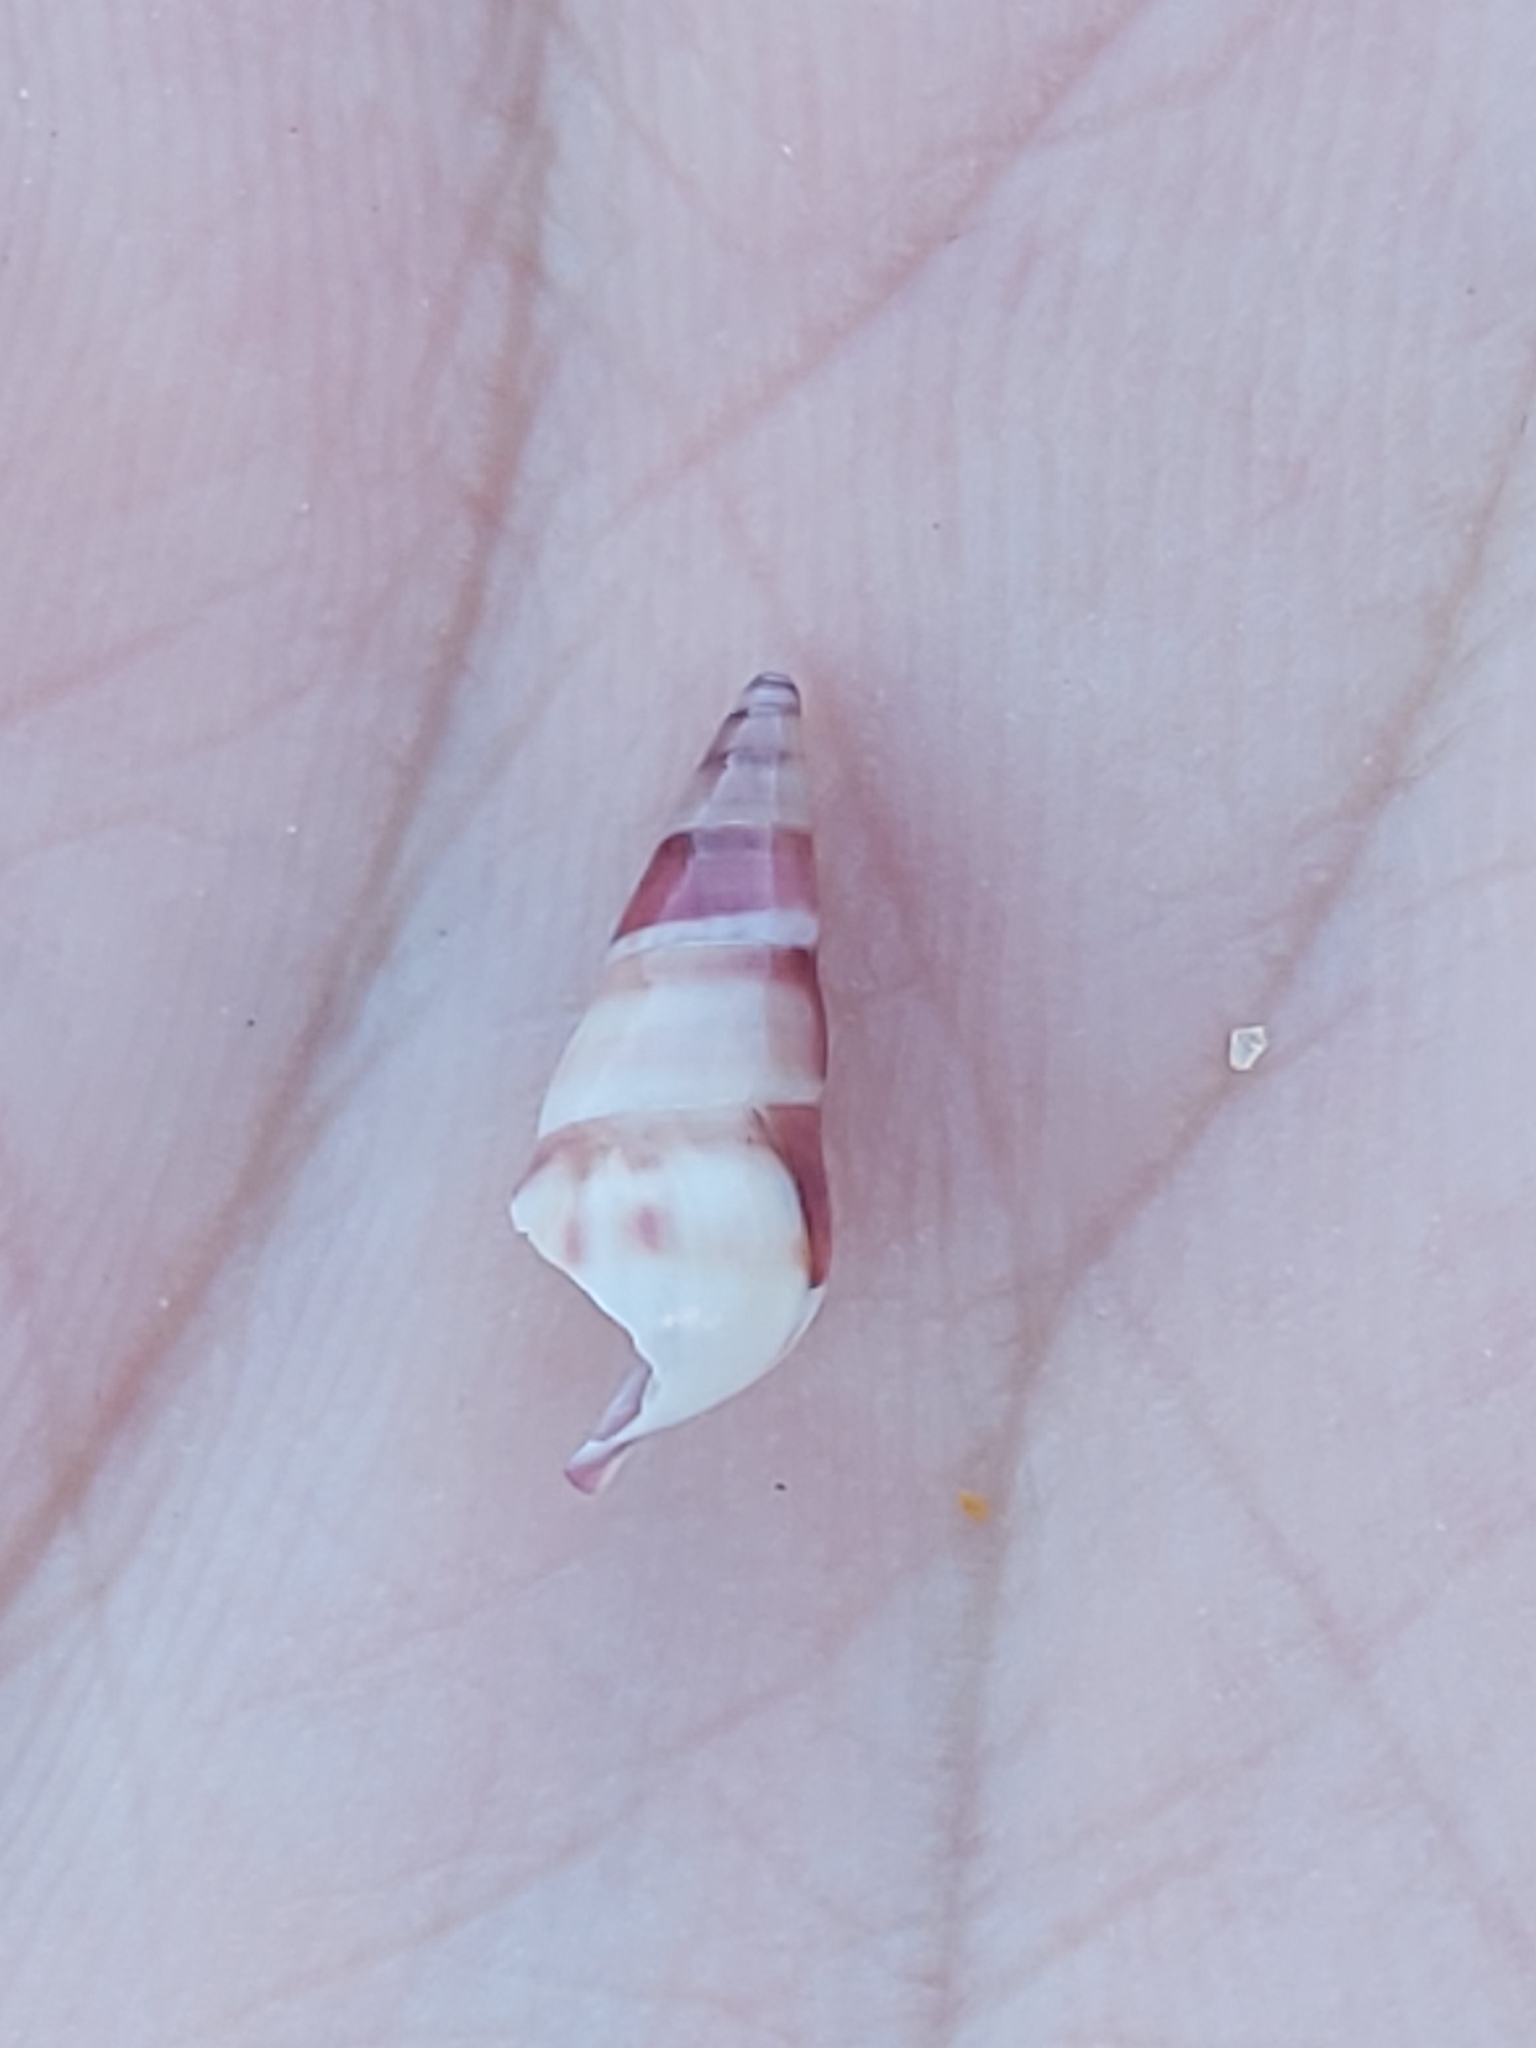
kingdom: Animalia
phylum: Mollusca
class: Gastropoda
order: Trochida
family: Trochidae
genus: Bankivia
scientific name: Bankivia fasciata
